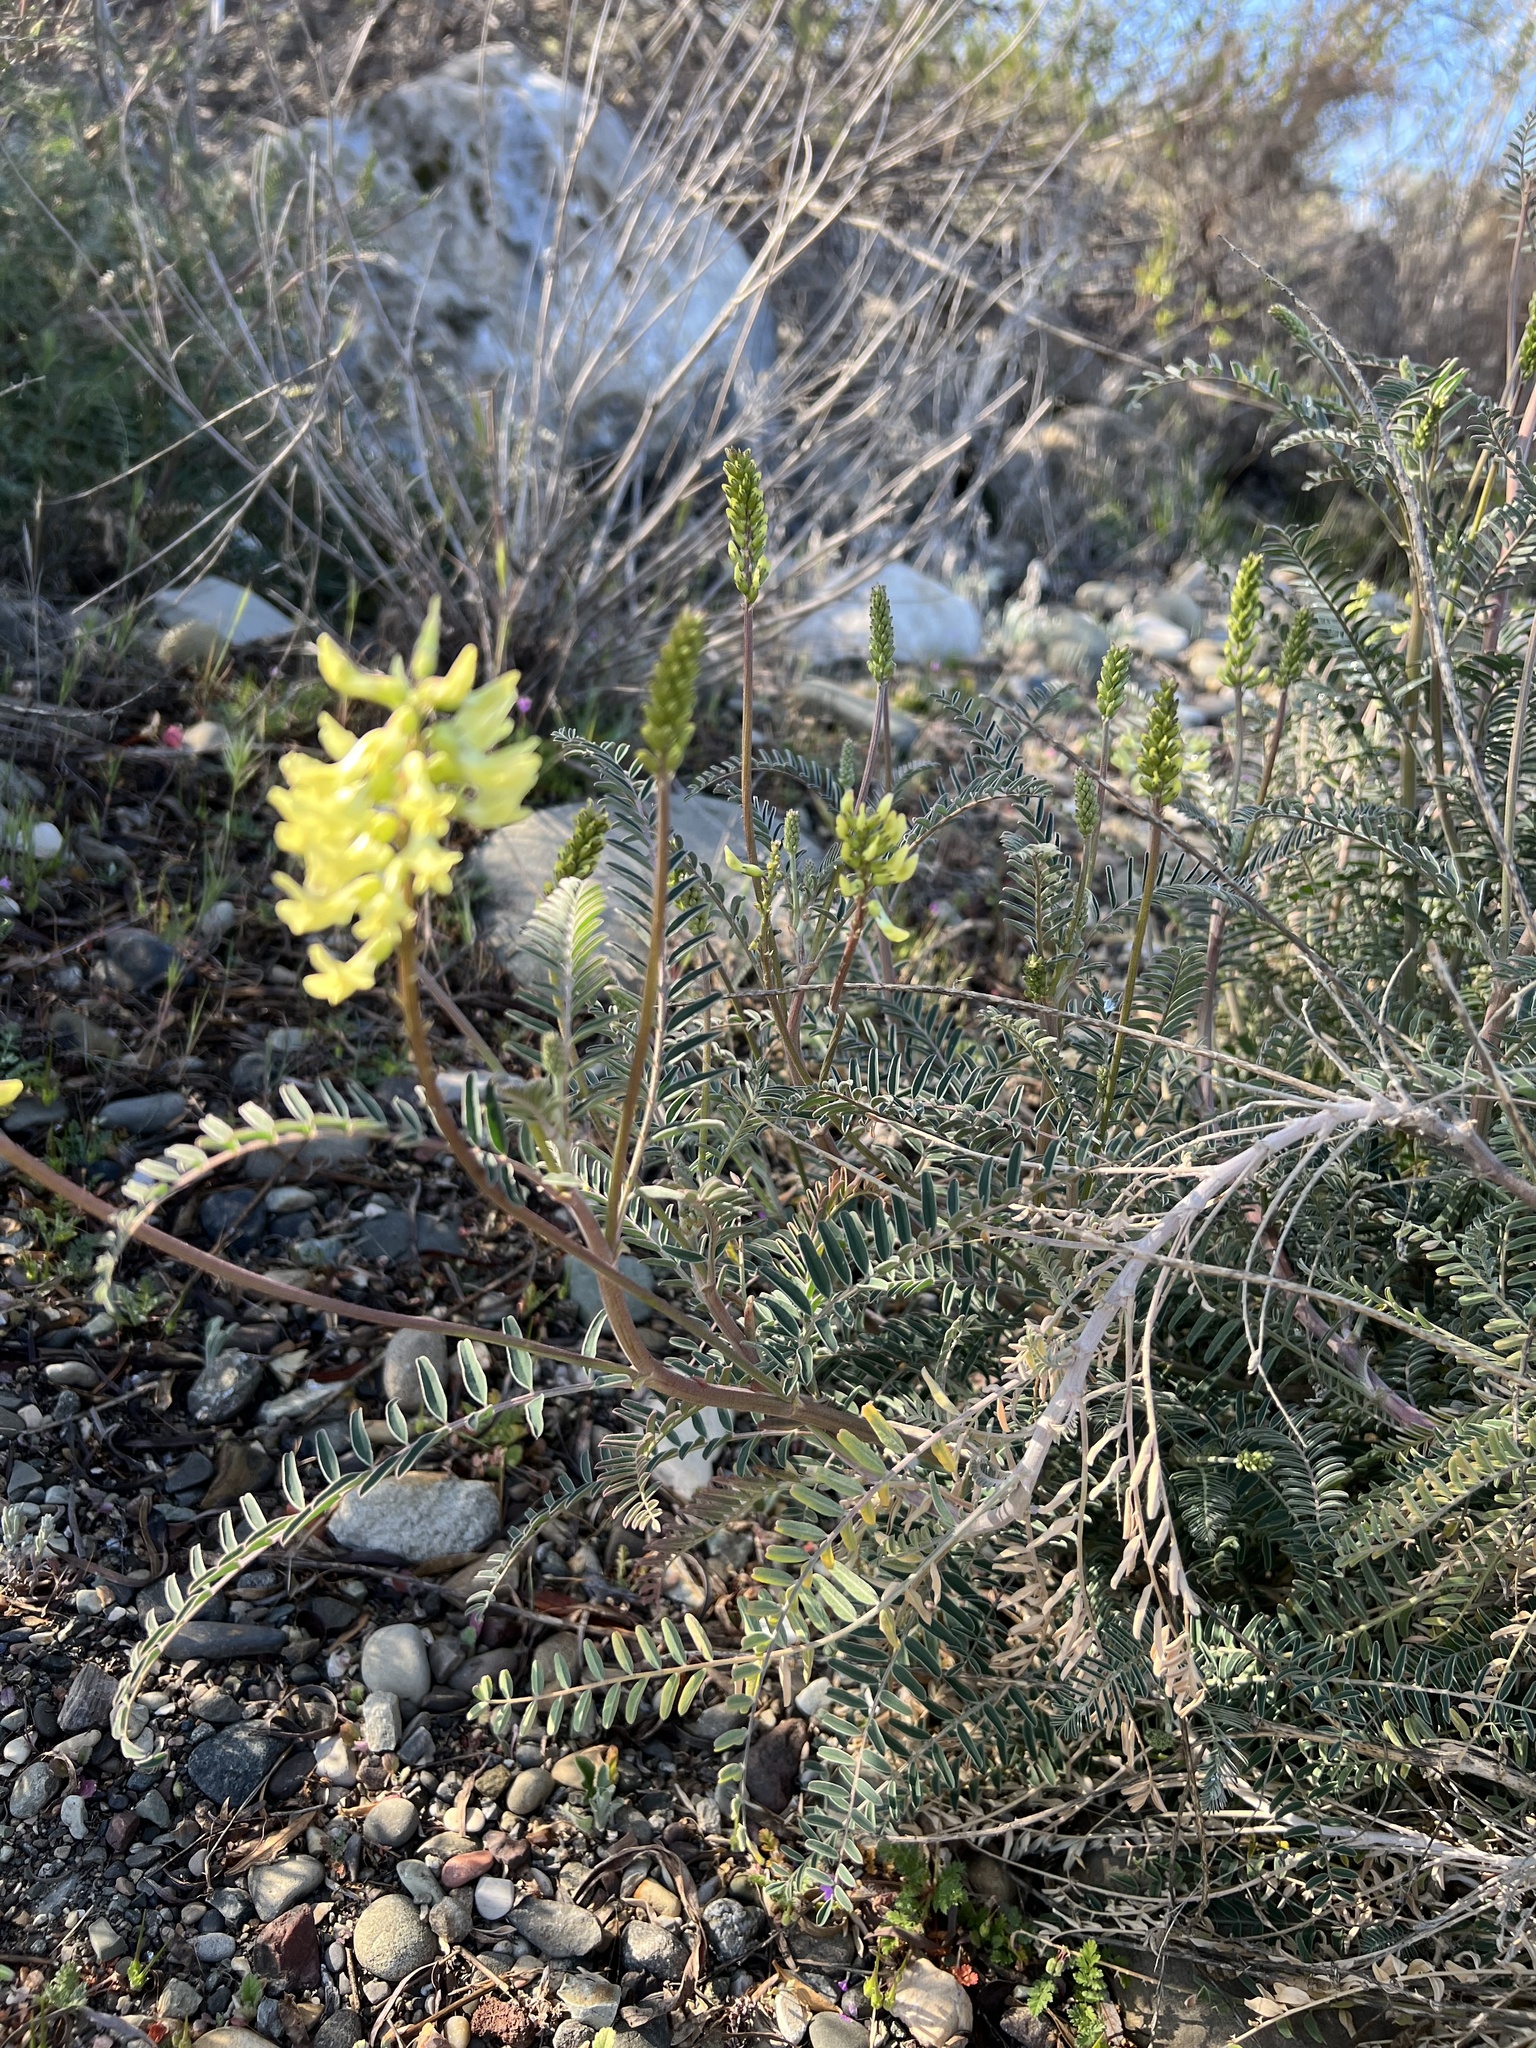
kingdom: Plantae
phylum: Tracheophyta
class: Magnoliopsida
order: Fabales
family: Fabaceae
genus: Astragalus
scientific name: Astragalus trichopodus
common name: Santa barbara milk-vetch
